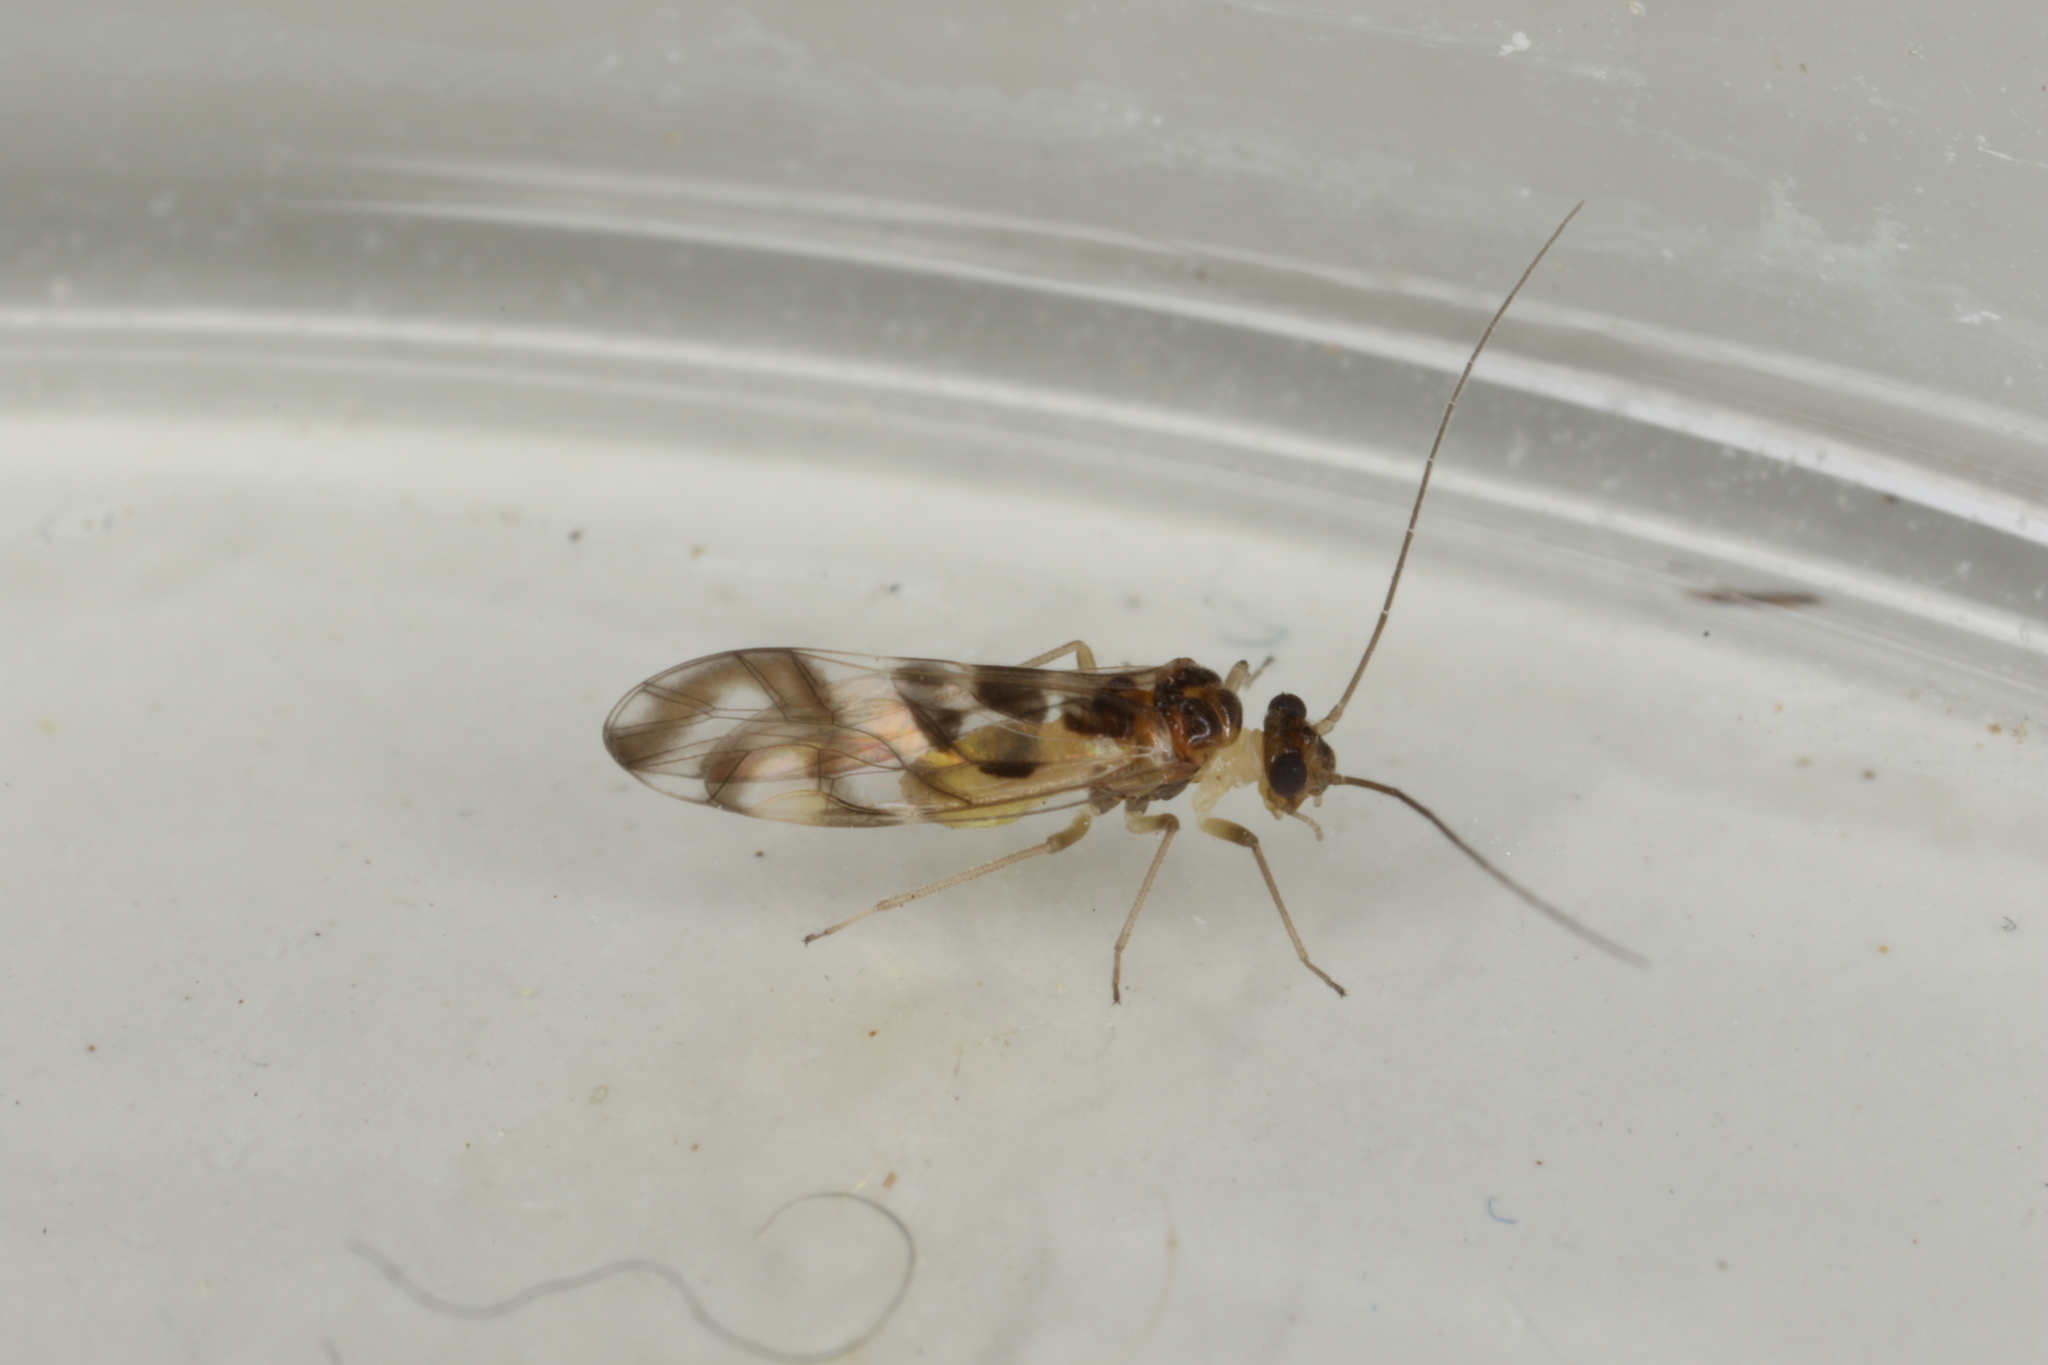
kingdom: Animalia
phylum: Arthropoda
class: Insecta
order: Psocodea
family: Stenopsocidae
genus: Graphopsocus
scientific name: Graphopsocus cruciatus
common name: Lizard bark louse
